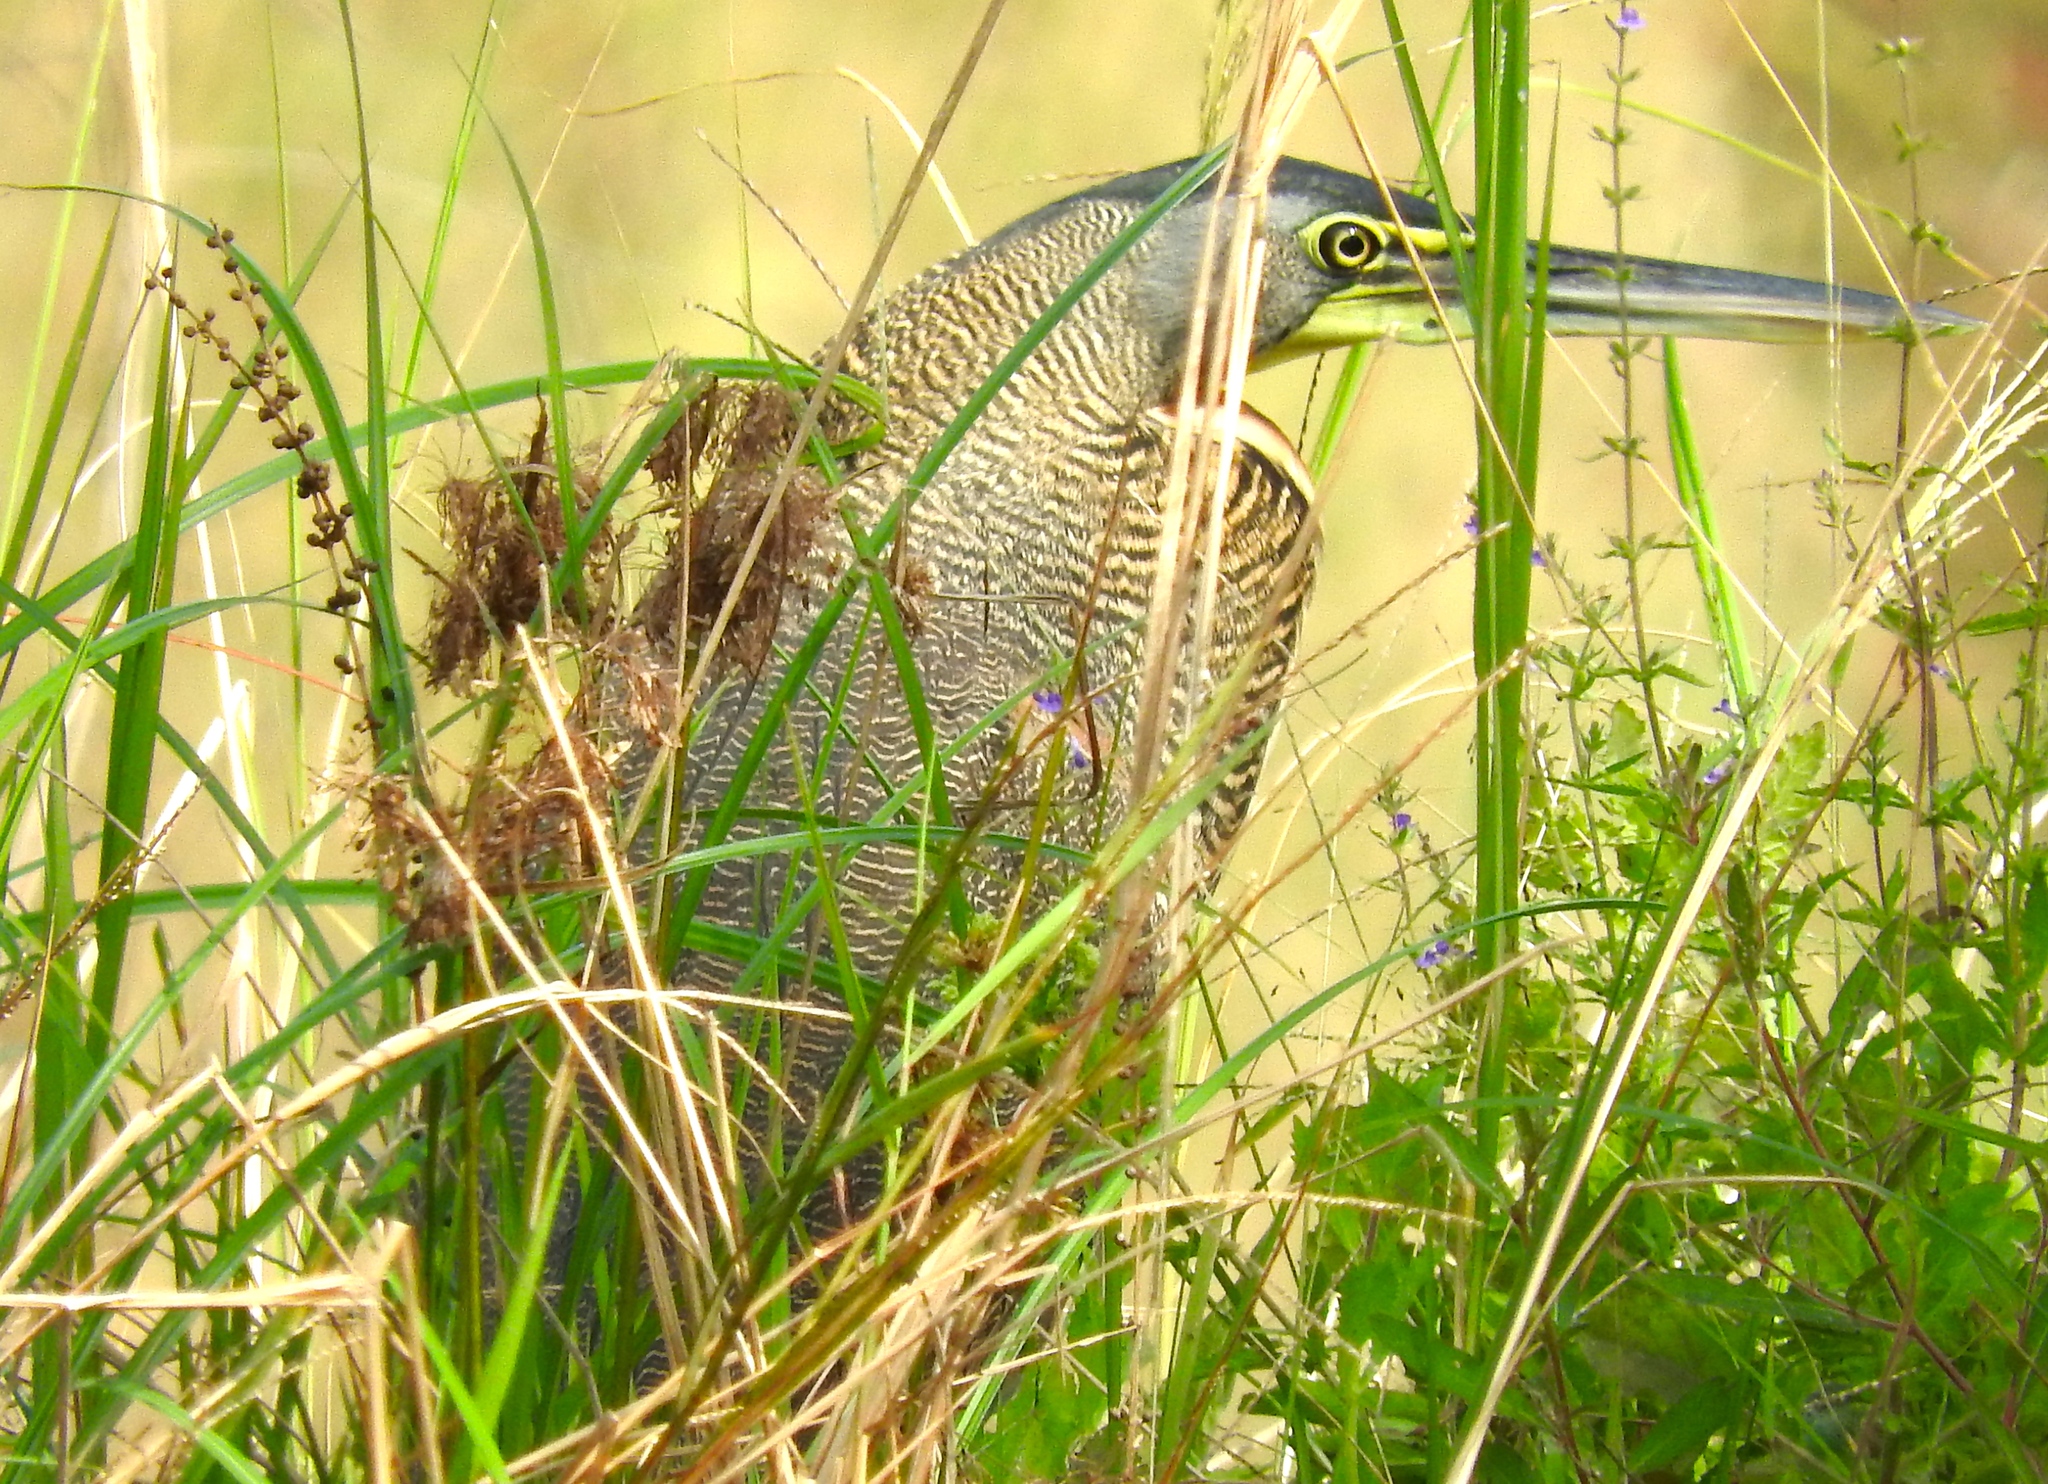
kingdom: Animalia
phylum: Chordata
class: Aves
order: Pelecaniformes
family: Ardeidae
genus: Tigrisoma
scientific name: Tigrisoma mexicanum
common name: Bare-throated tiger-heron
